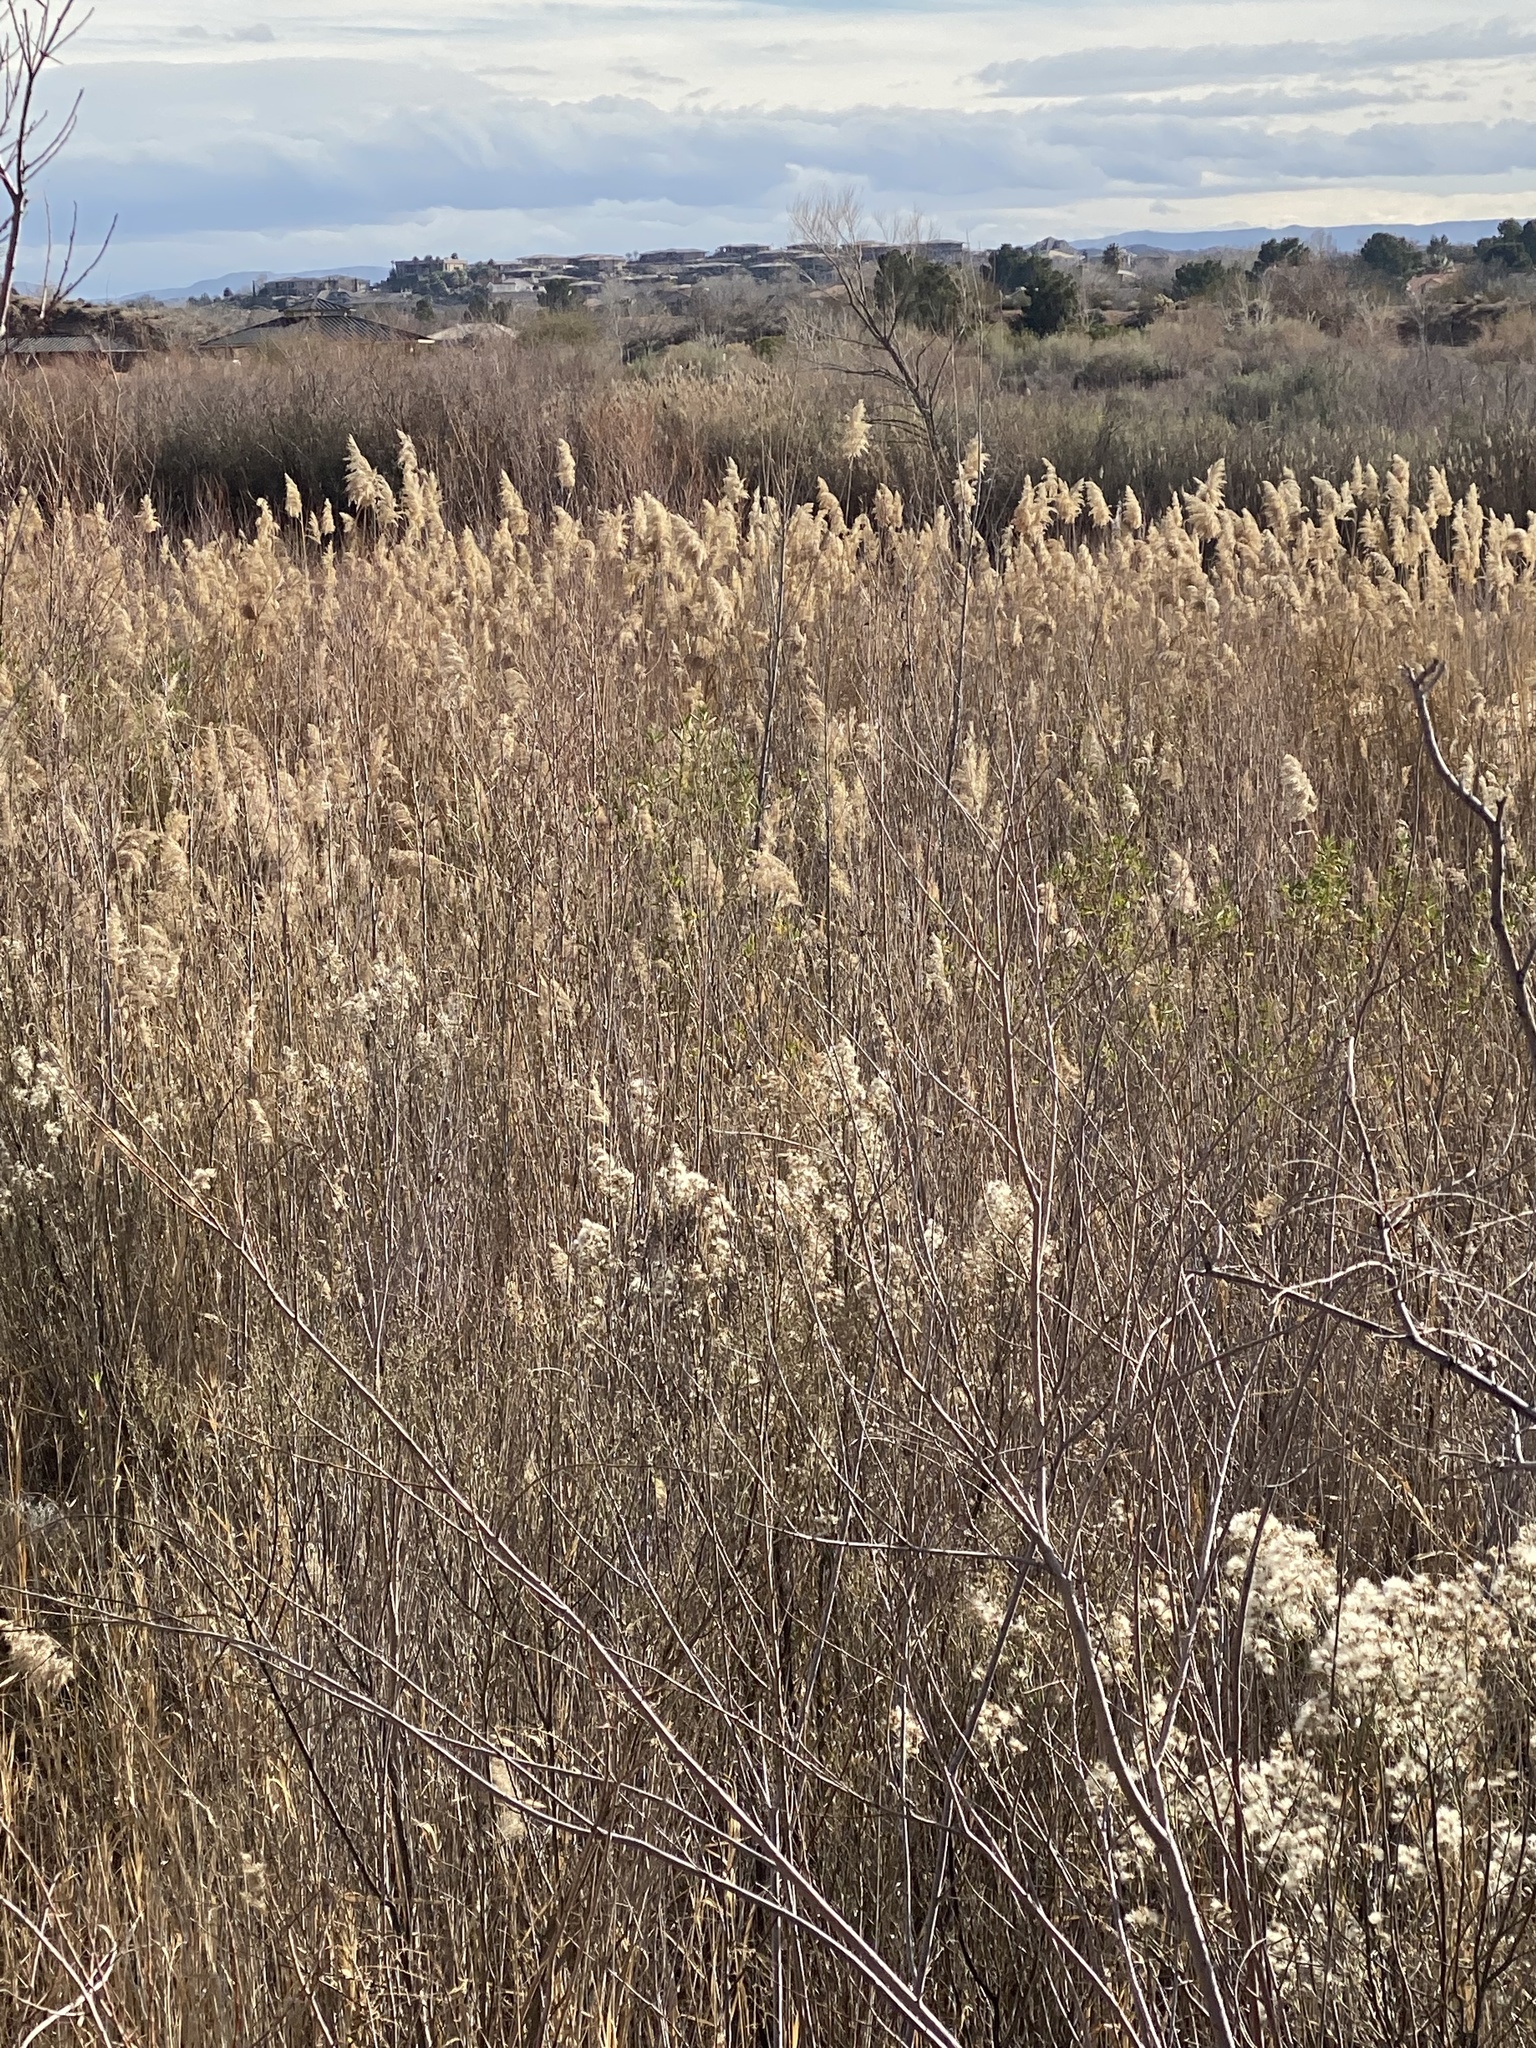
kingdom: Plantae
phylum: Tracheophyta
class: Liliopsida
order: Poales
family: Poaceae
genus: Phragmites
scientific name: Phragmites australis
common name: Common reed
